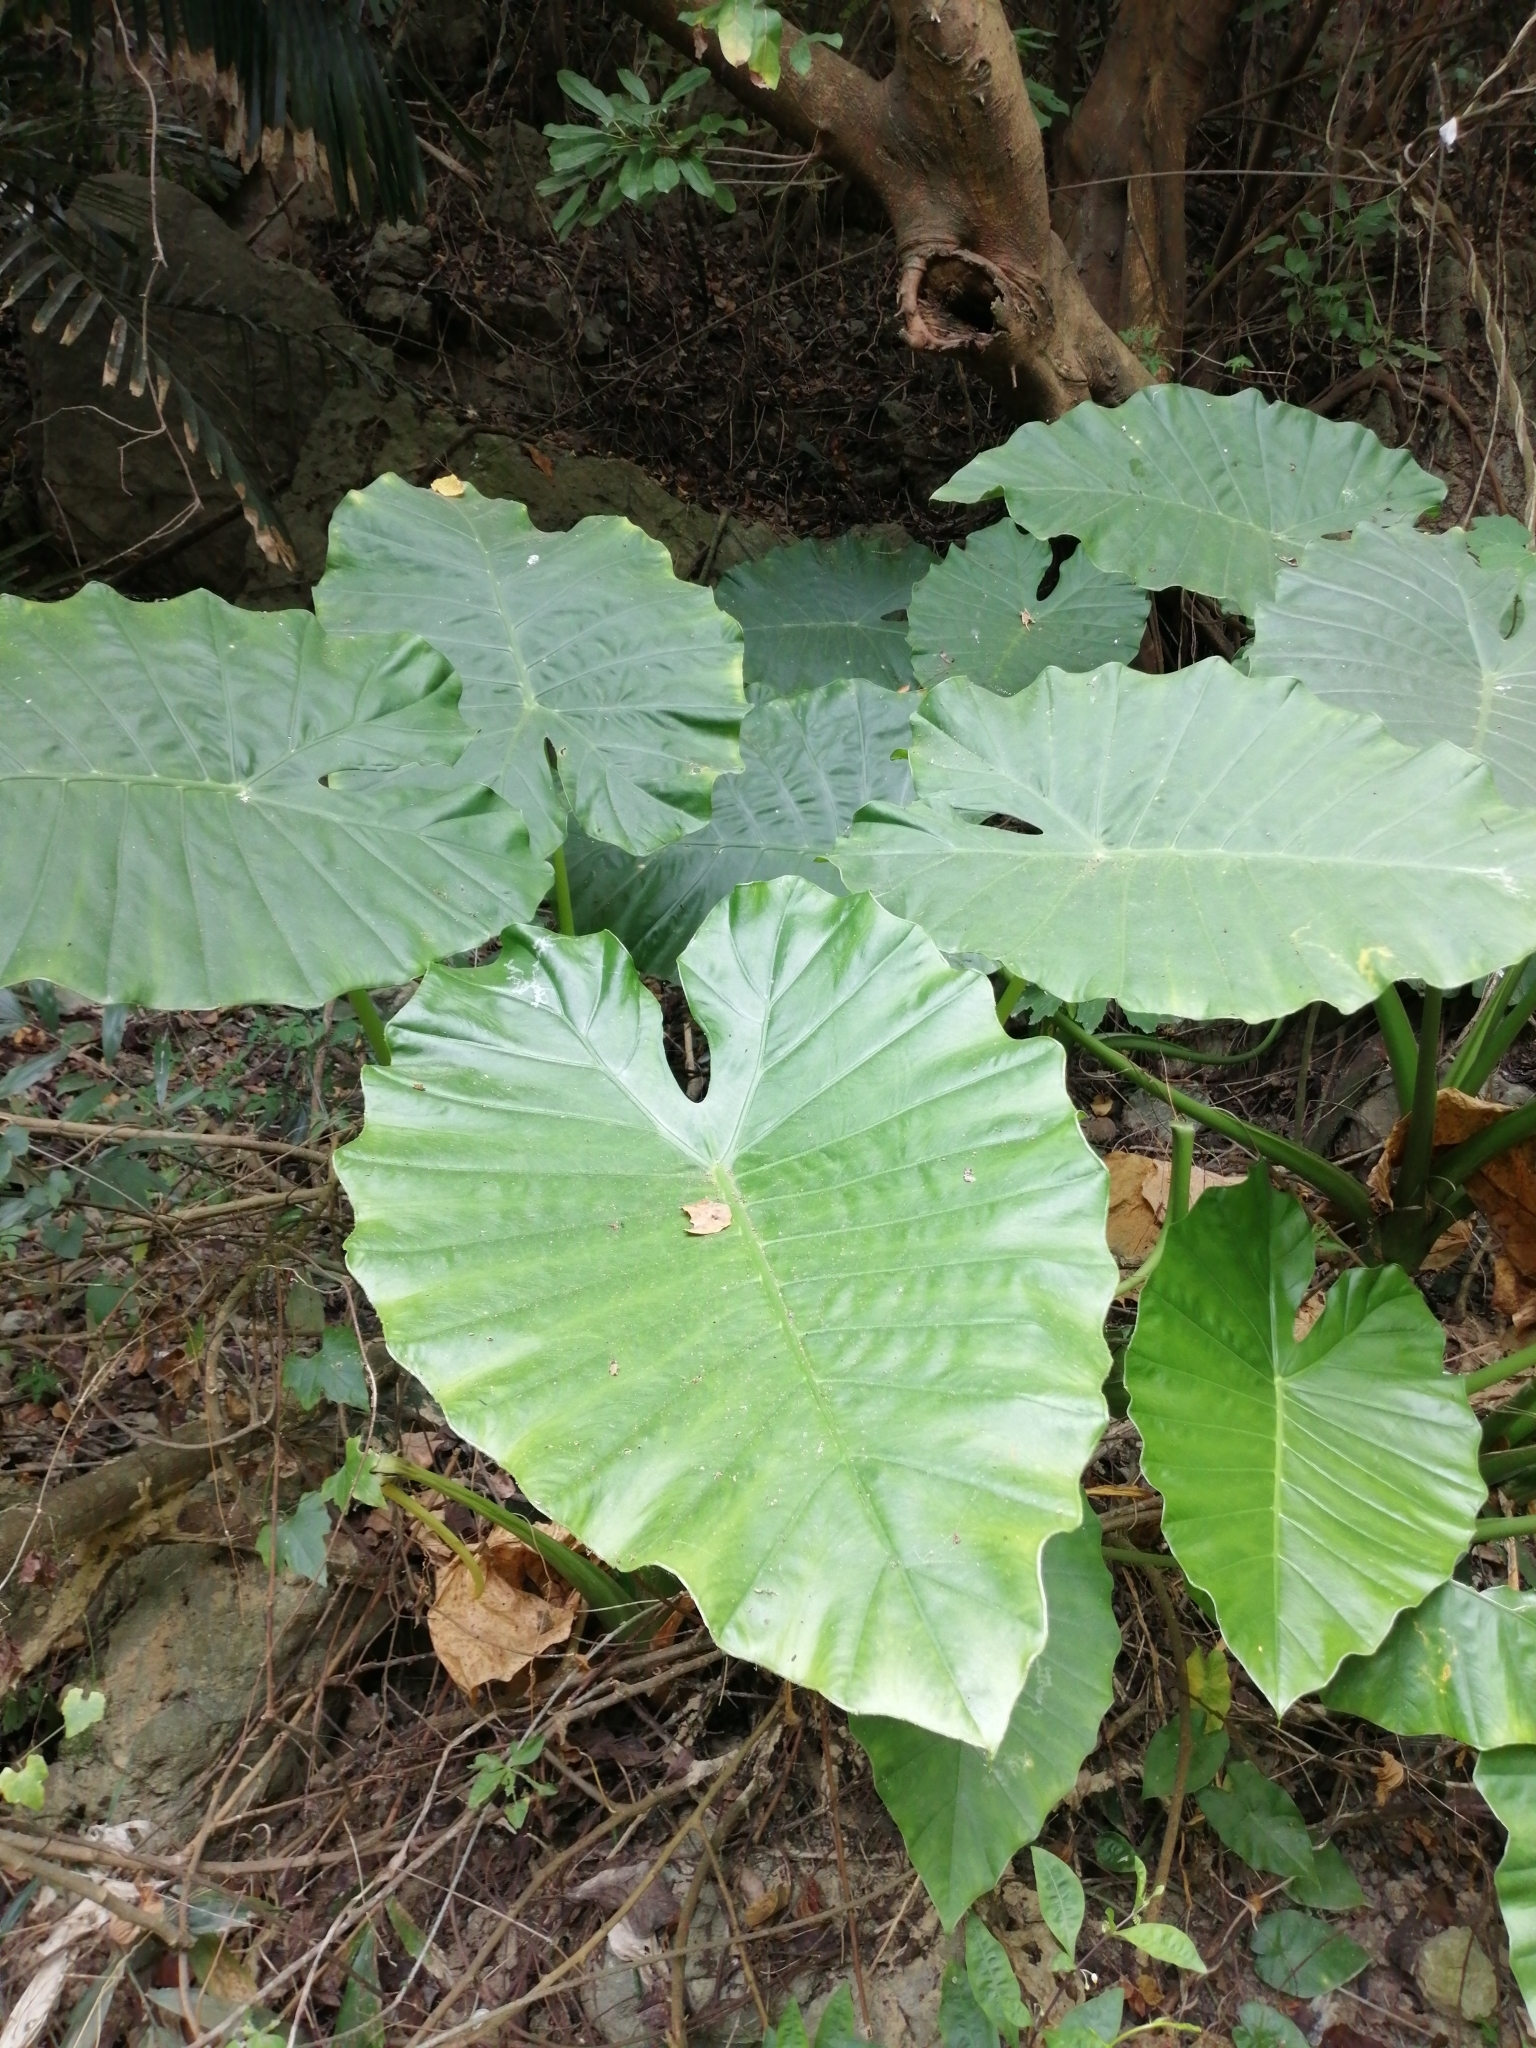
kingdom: Plantae
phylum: Tracheophyta
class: Liliopsida
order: Alismatales
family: Araceae
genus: Alocasia
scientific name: Alocasia odora
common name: Asian taro
